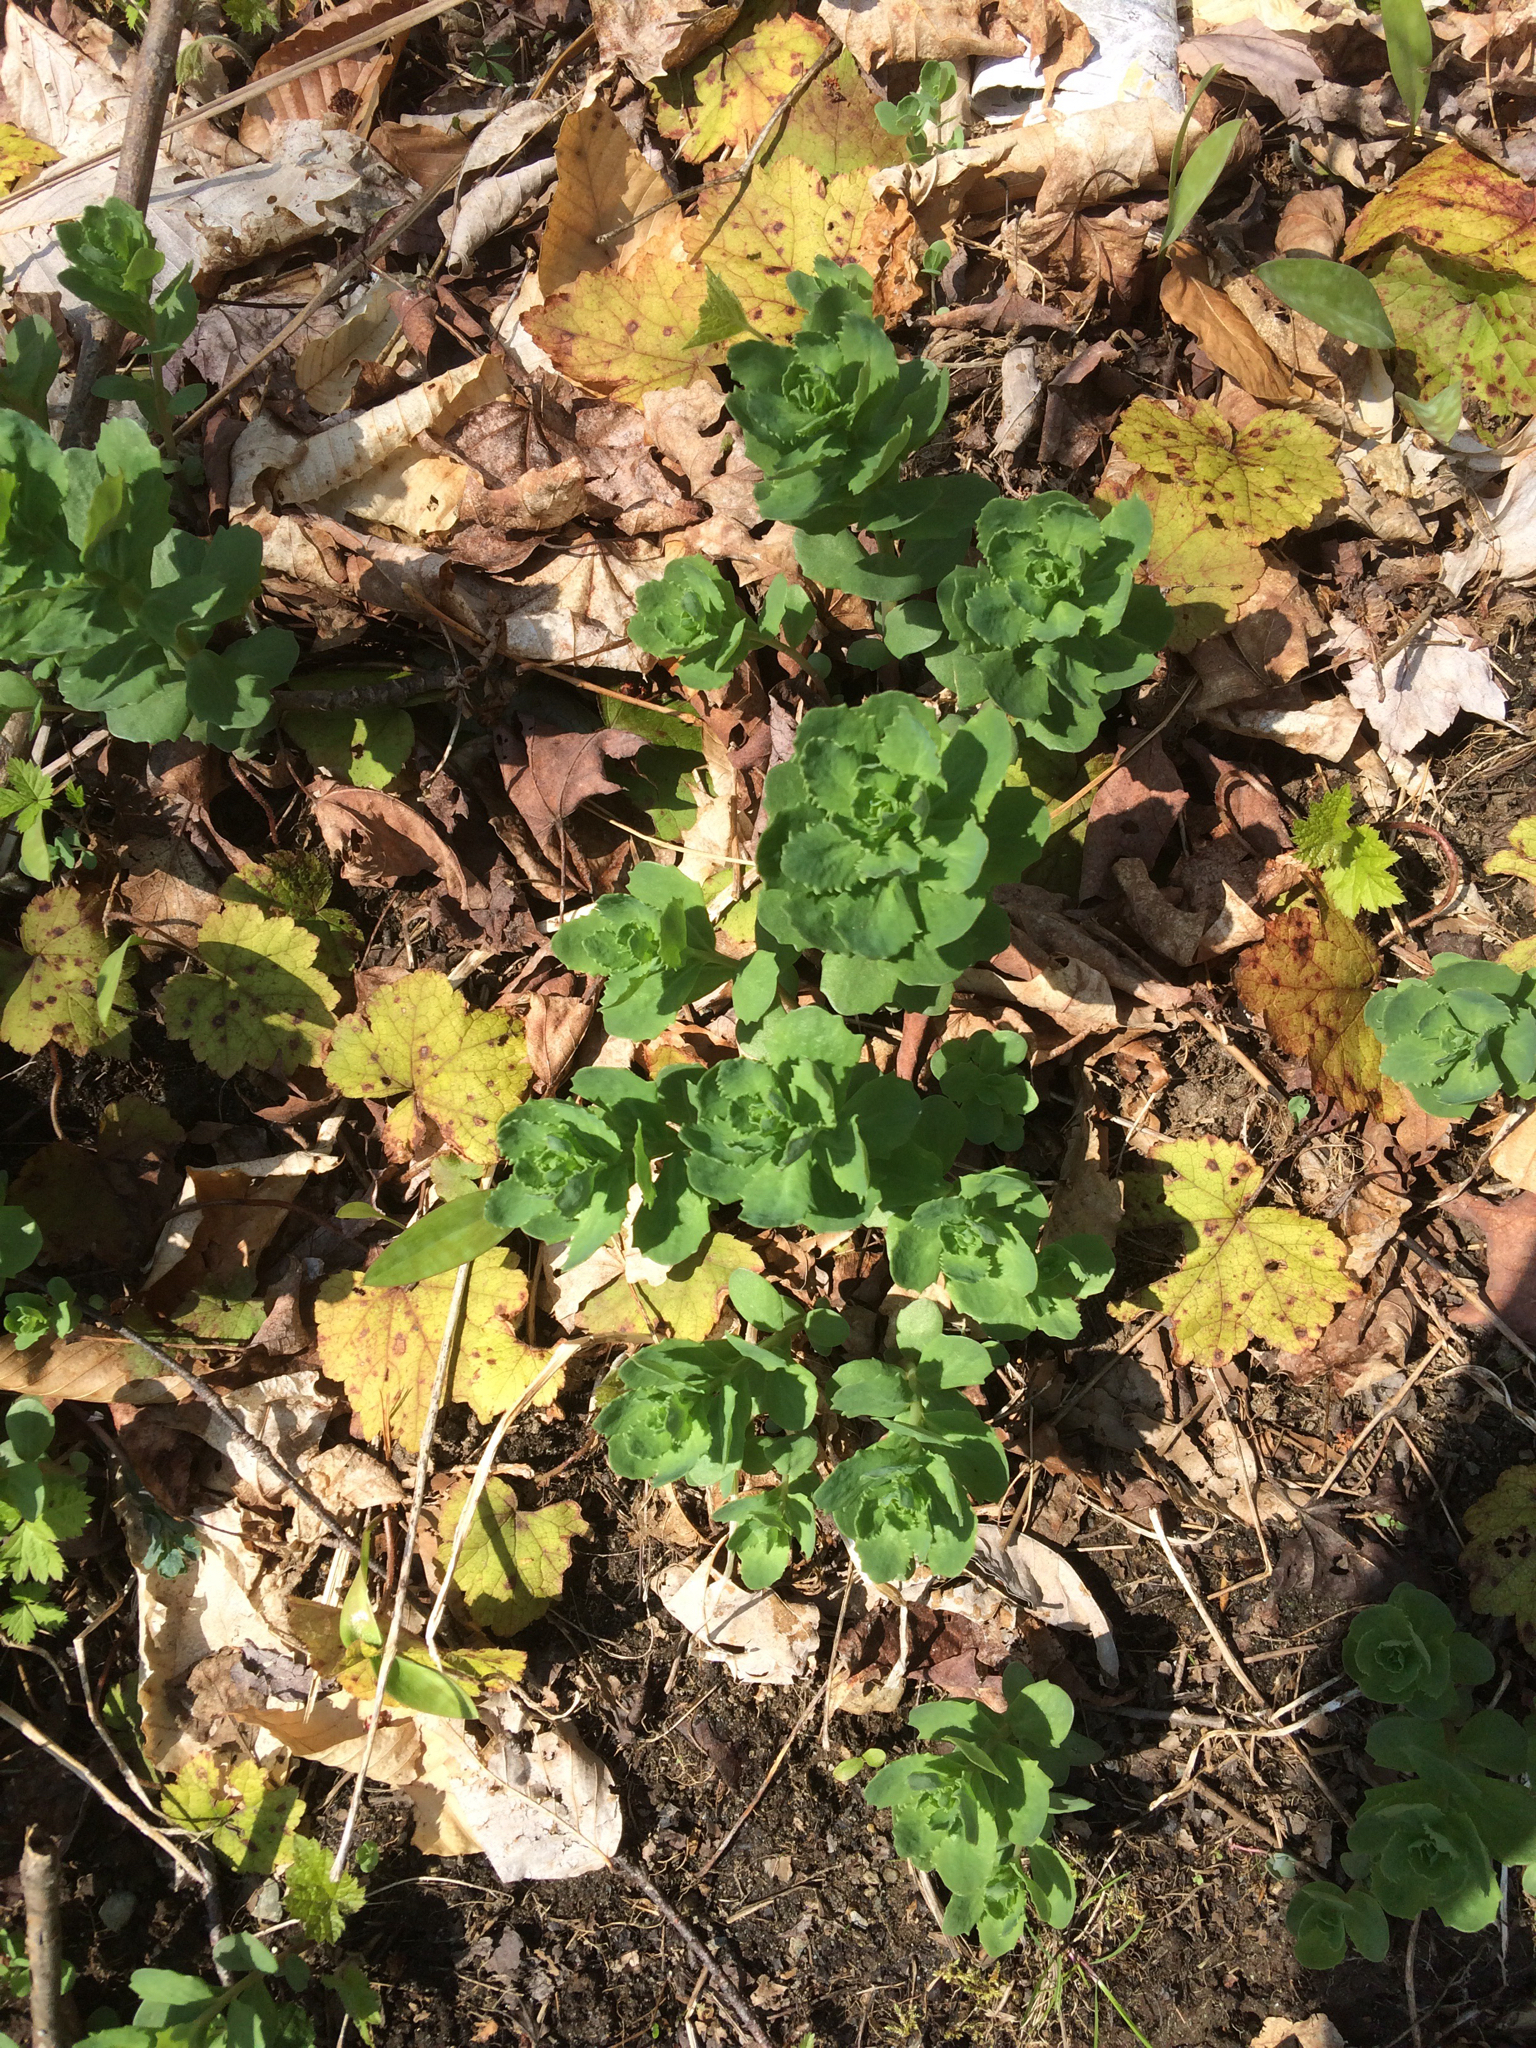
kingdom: Plantae
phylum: Tracheophyta
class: Magnoliopsida
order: Saxifragales
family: Crassulaceae
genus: Hylotelephium
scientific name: Hylotelephium telephium
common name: Live-forever
